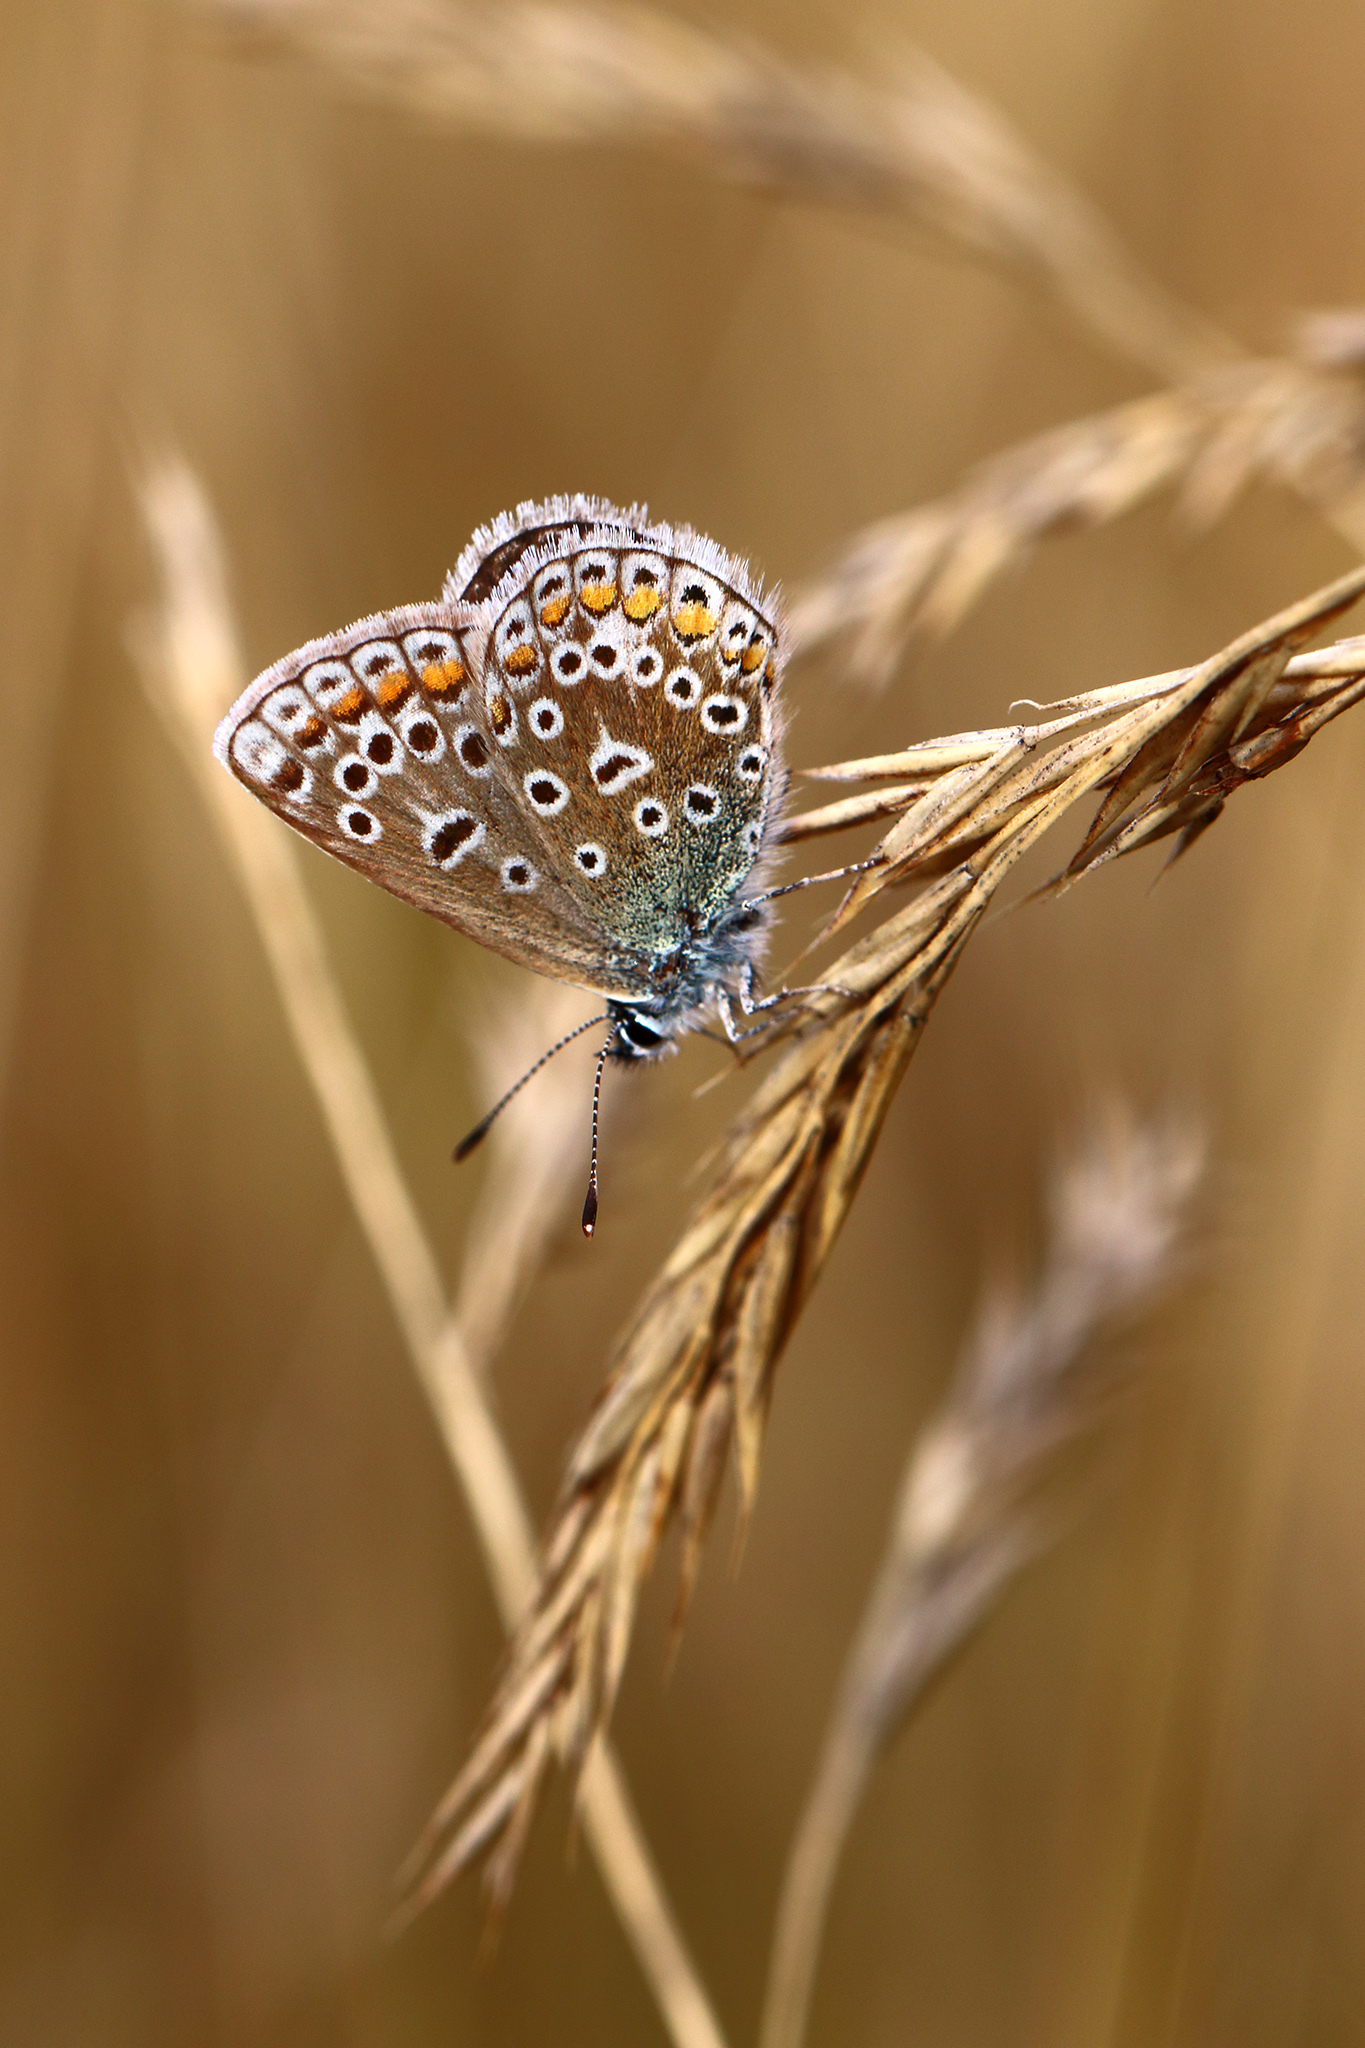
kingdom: Animalia
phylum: Arthropoda
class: Insecta
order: Lepidoptera
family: Lycaenidae
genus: Polyommatus
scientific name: Polyommatus icarus
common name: Common blue
